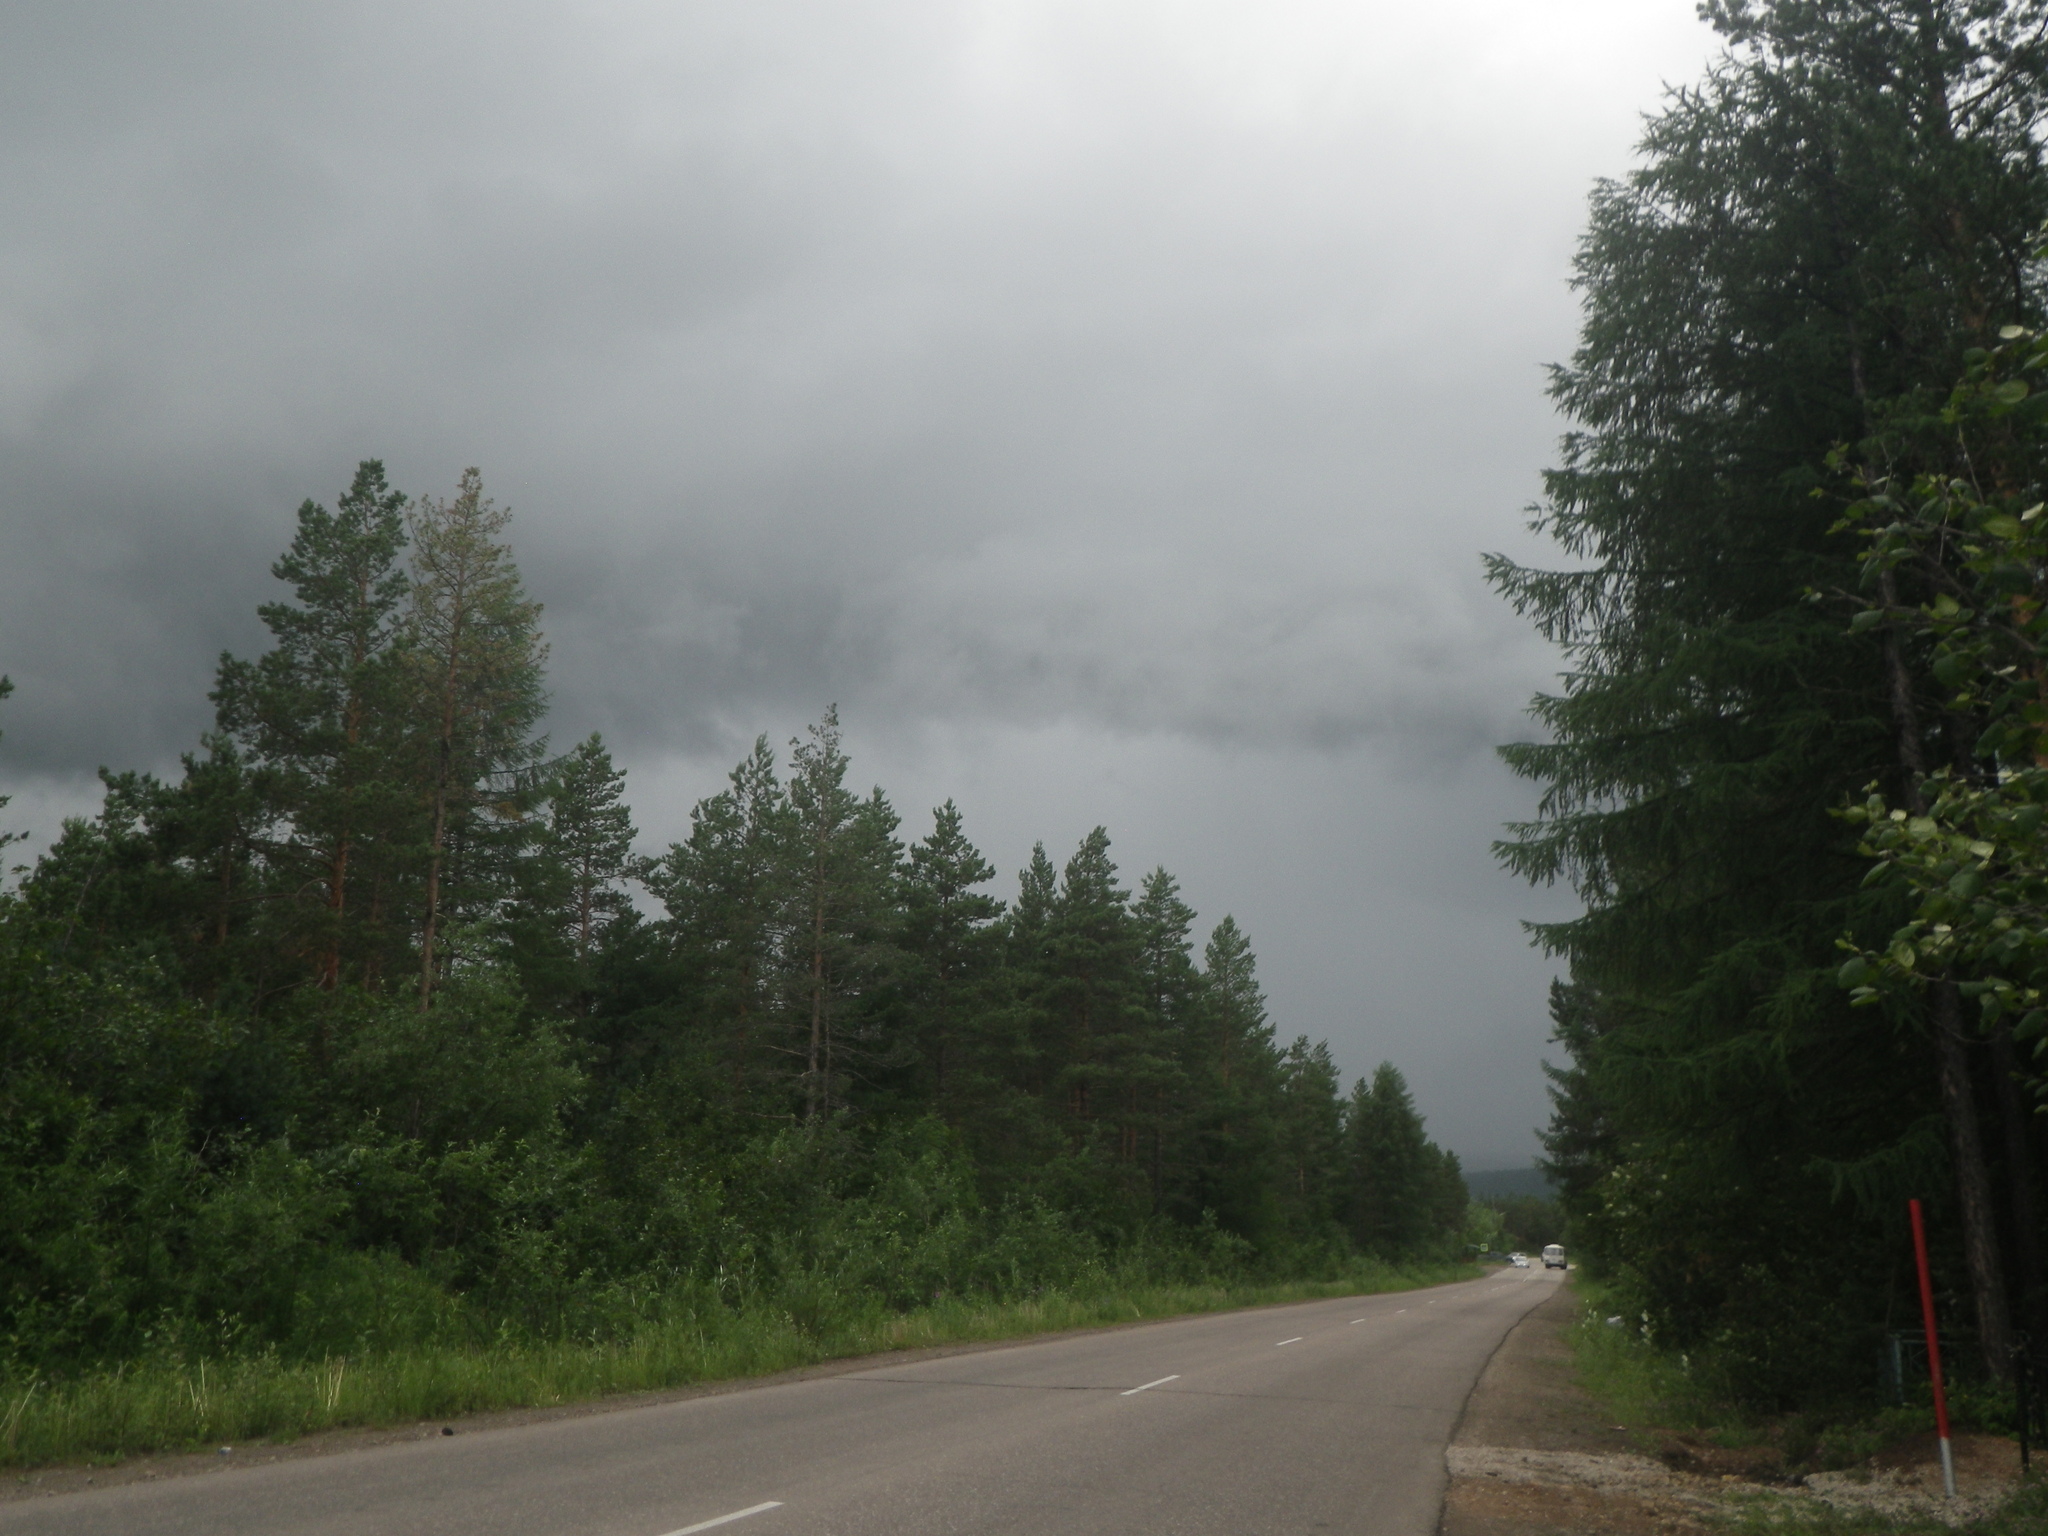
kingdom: Plantae
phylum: Tracheophyta
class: Pinopsida
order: Pinales
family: Pinaceae
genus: Pinus
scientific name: Pinus sylvestris
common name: Scots pine
